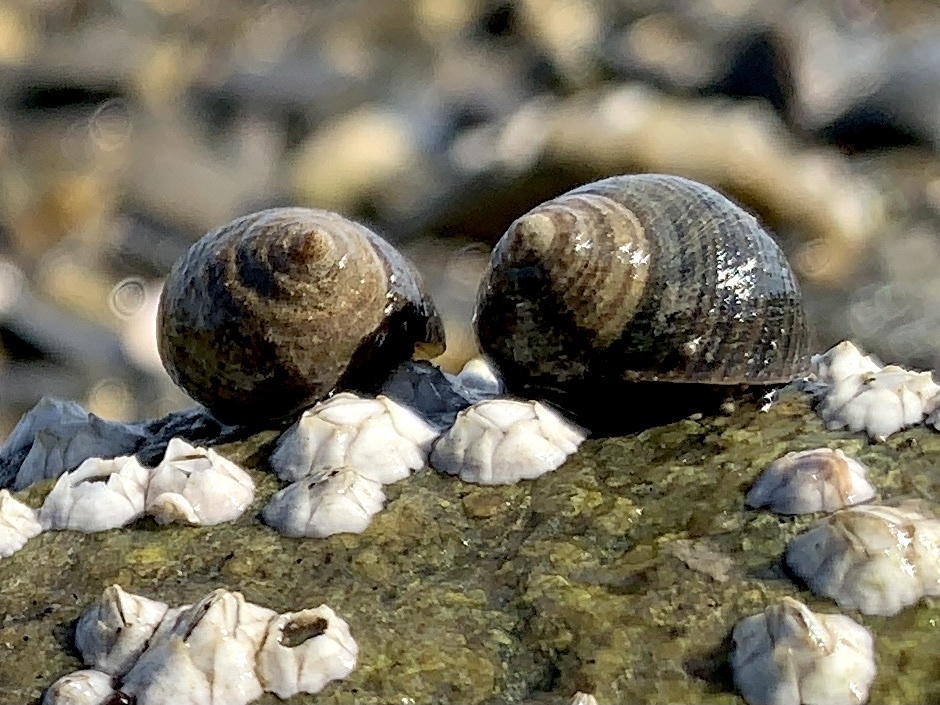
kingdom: Animalia
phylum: Mollusca
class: Gastropoda
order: Littorinimorpha
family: Littorinidae
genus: Littorina
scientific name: Littorina littorea
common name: Common periwinkle
